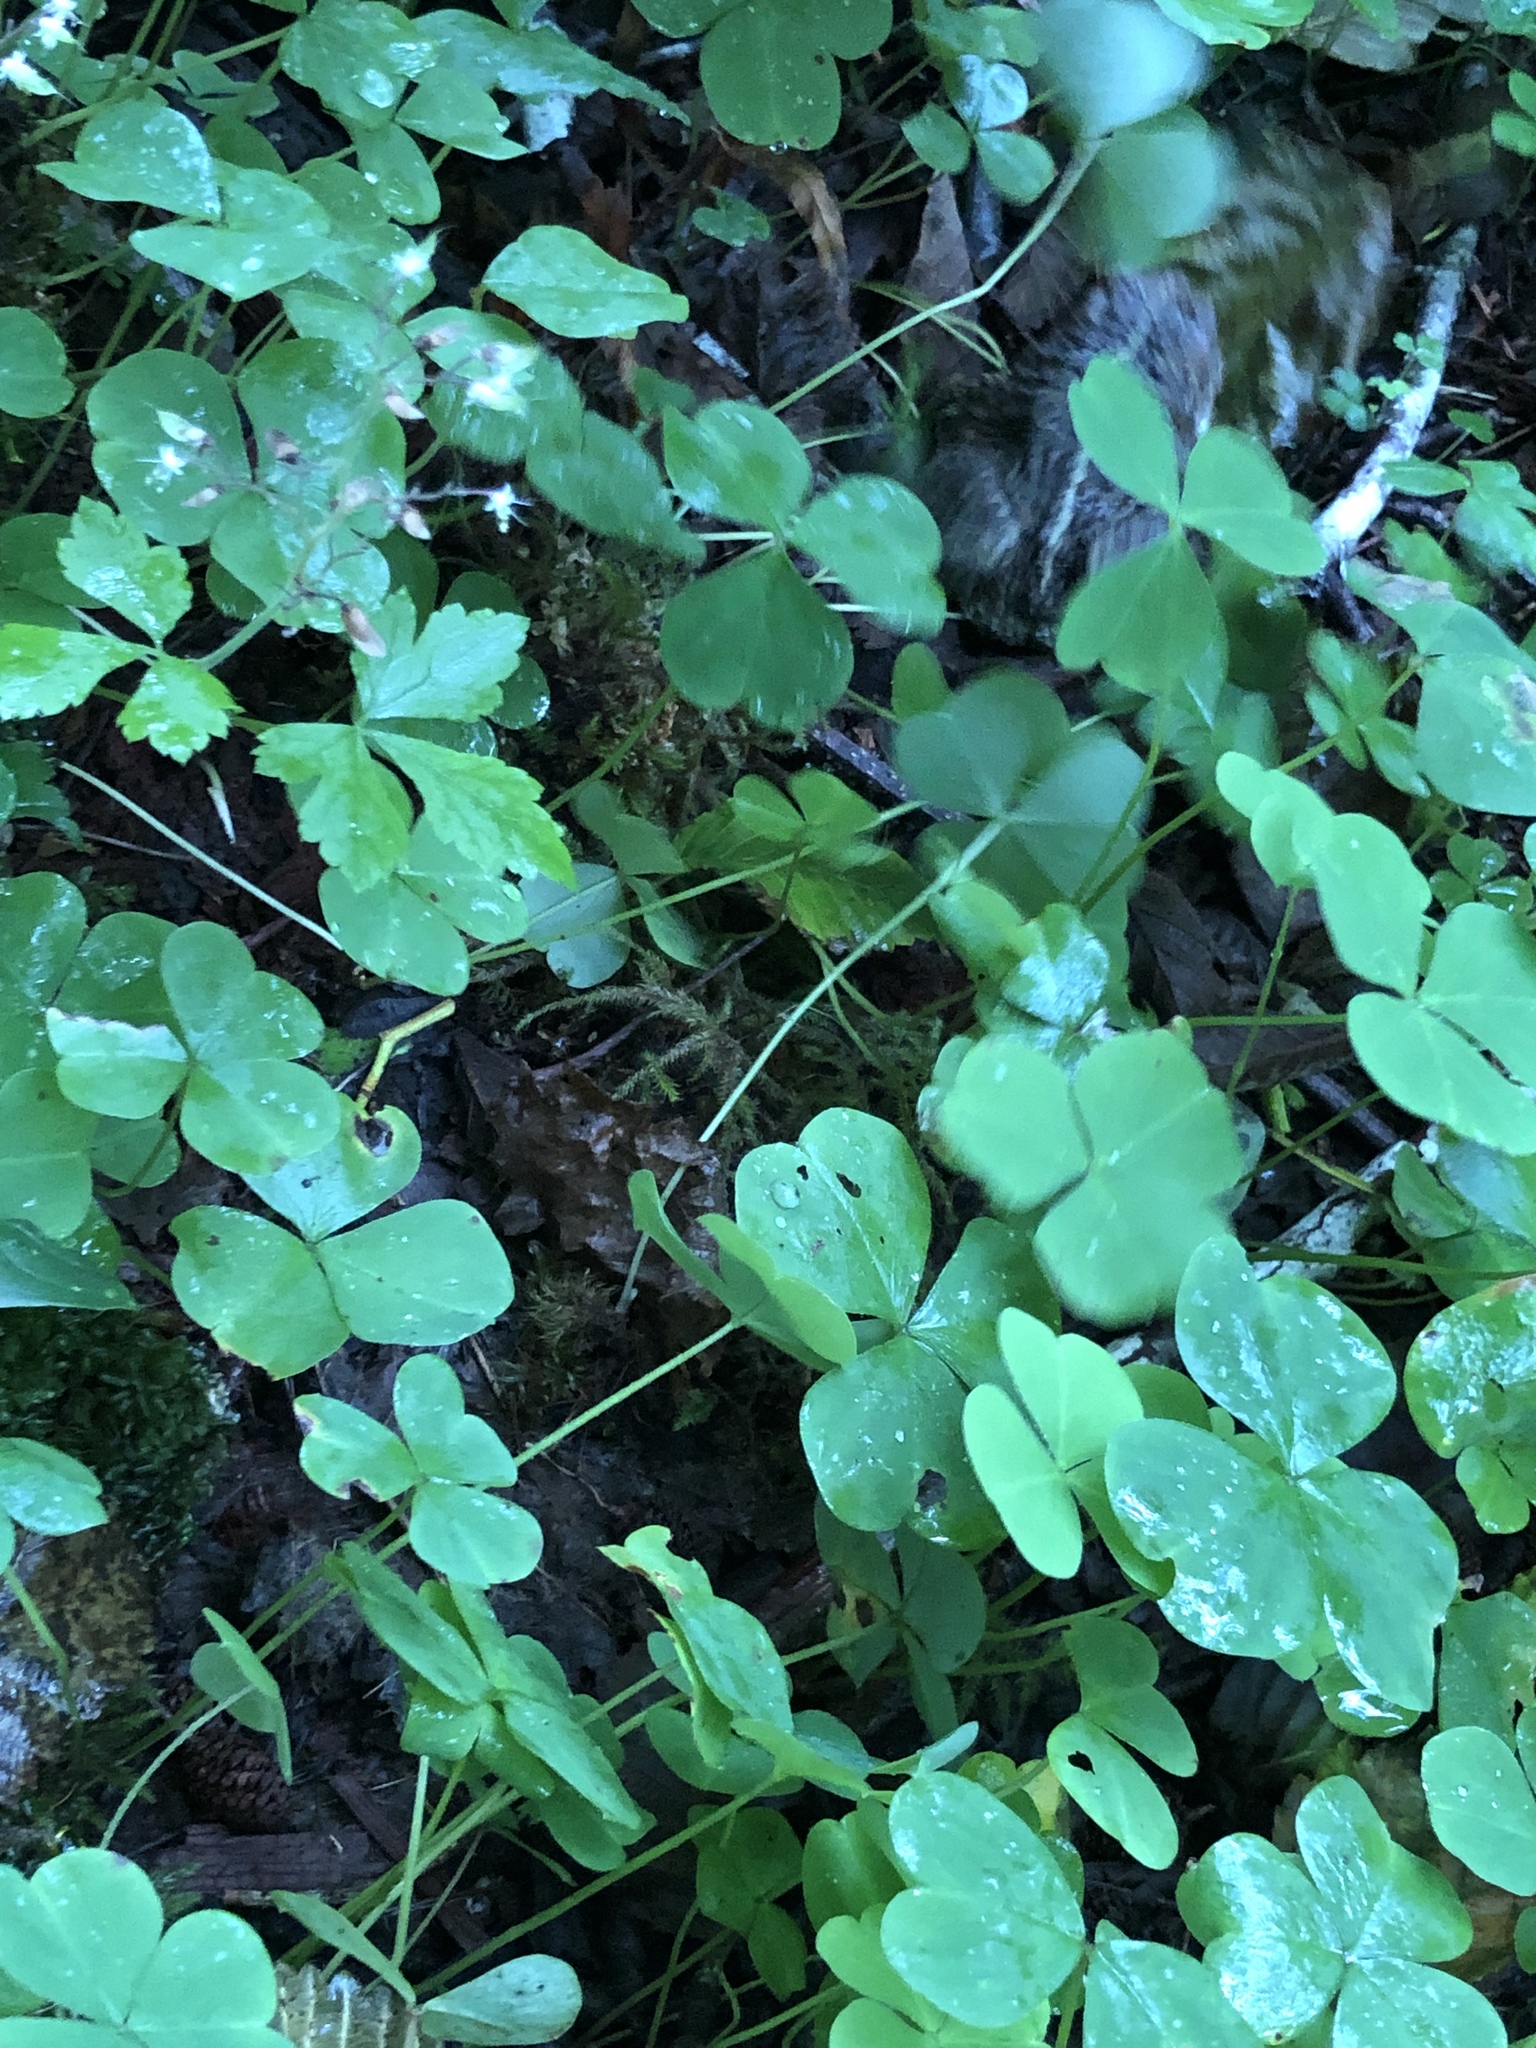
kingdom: Animalia
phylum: Chordata
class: Amphibia
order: Anura
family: Bufonidae
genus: Anaxyrus
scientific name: Anaxyrus boreas
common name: Western toad
